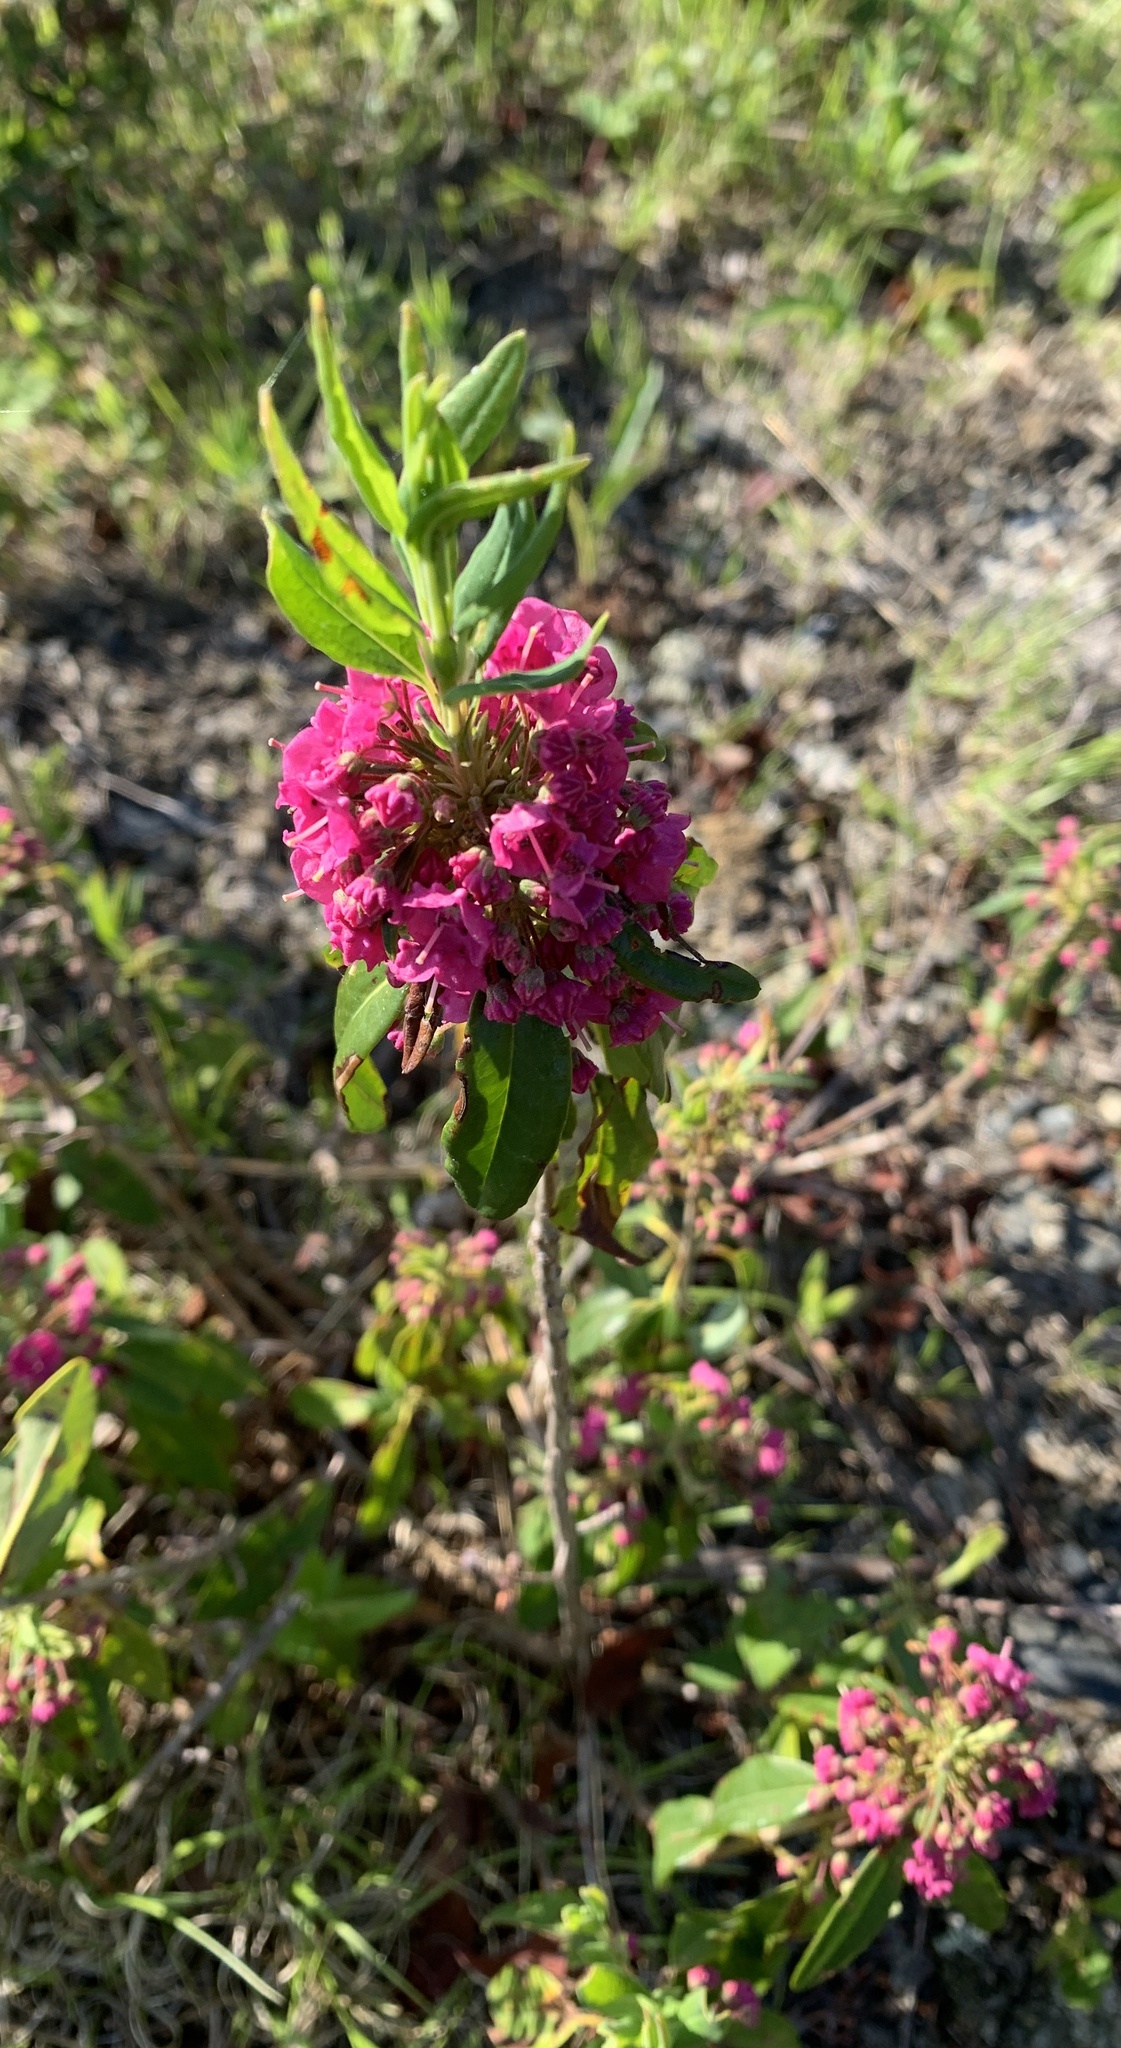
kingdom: Plantae
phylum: Tracheophyta
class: Magnoliopsida
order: Ericales
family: Ericaceae
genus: Kalmia
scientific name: Kalmia angustifolia
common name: Sheep-laurel
